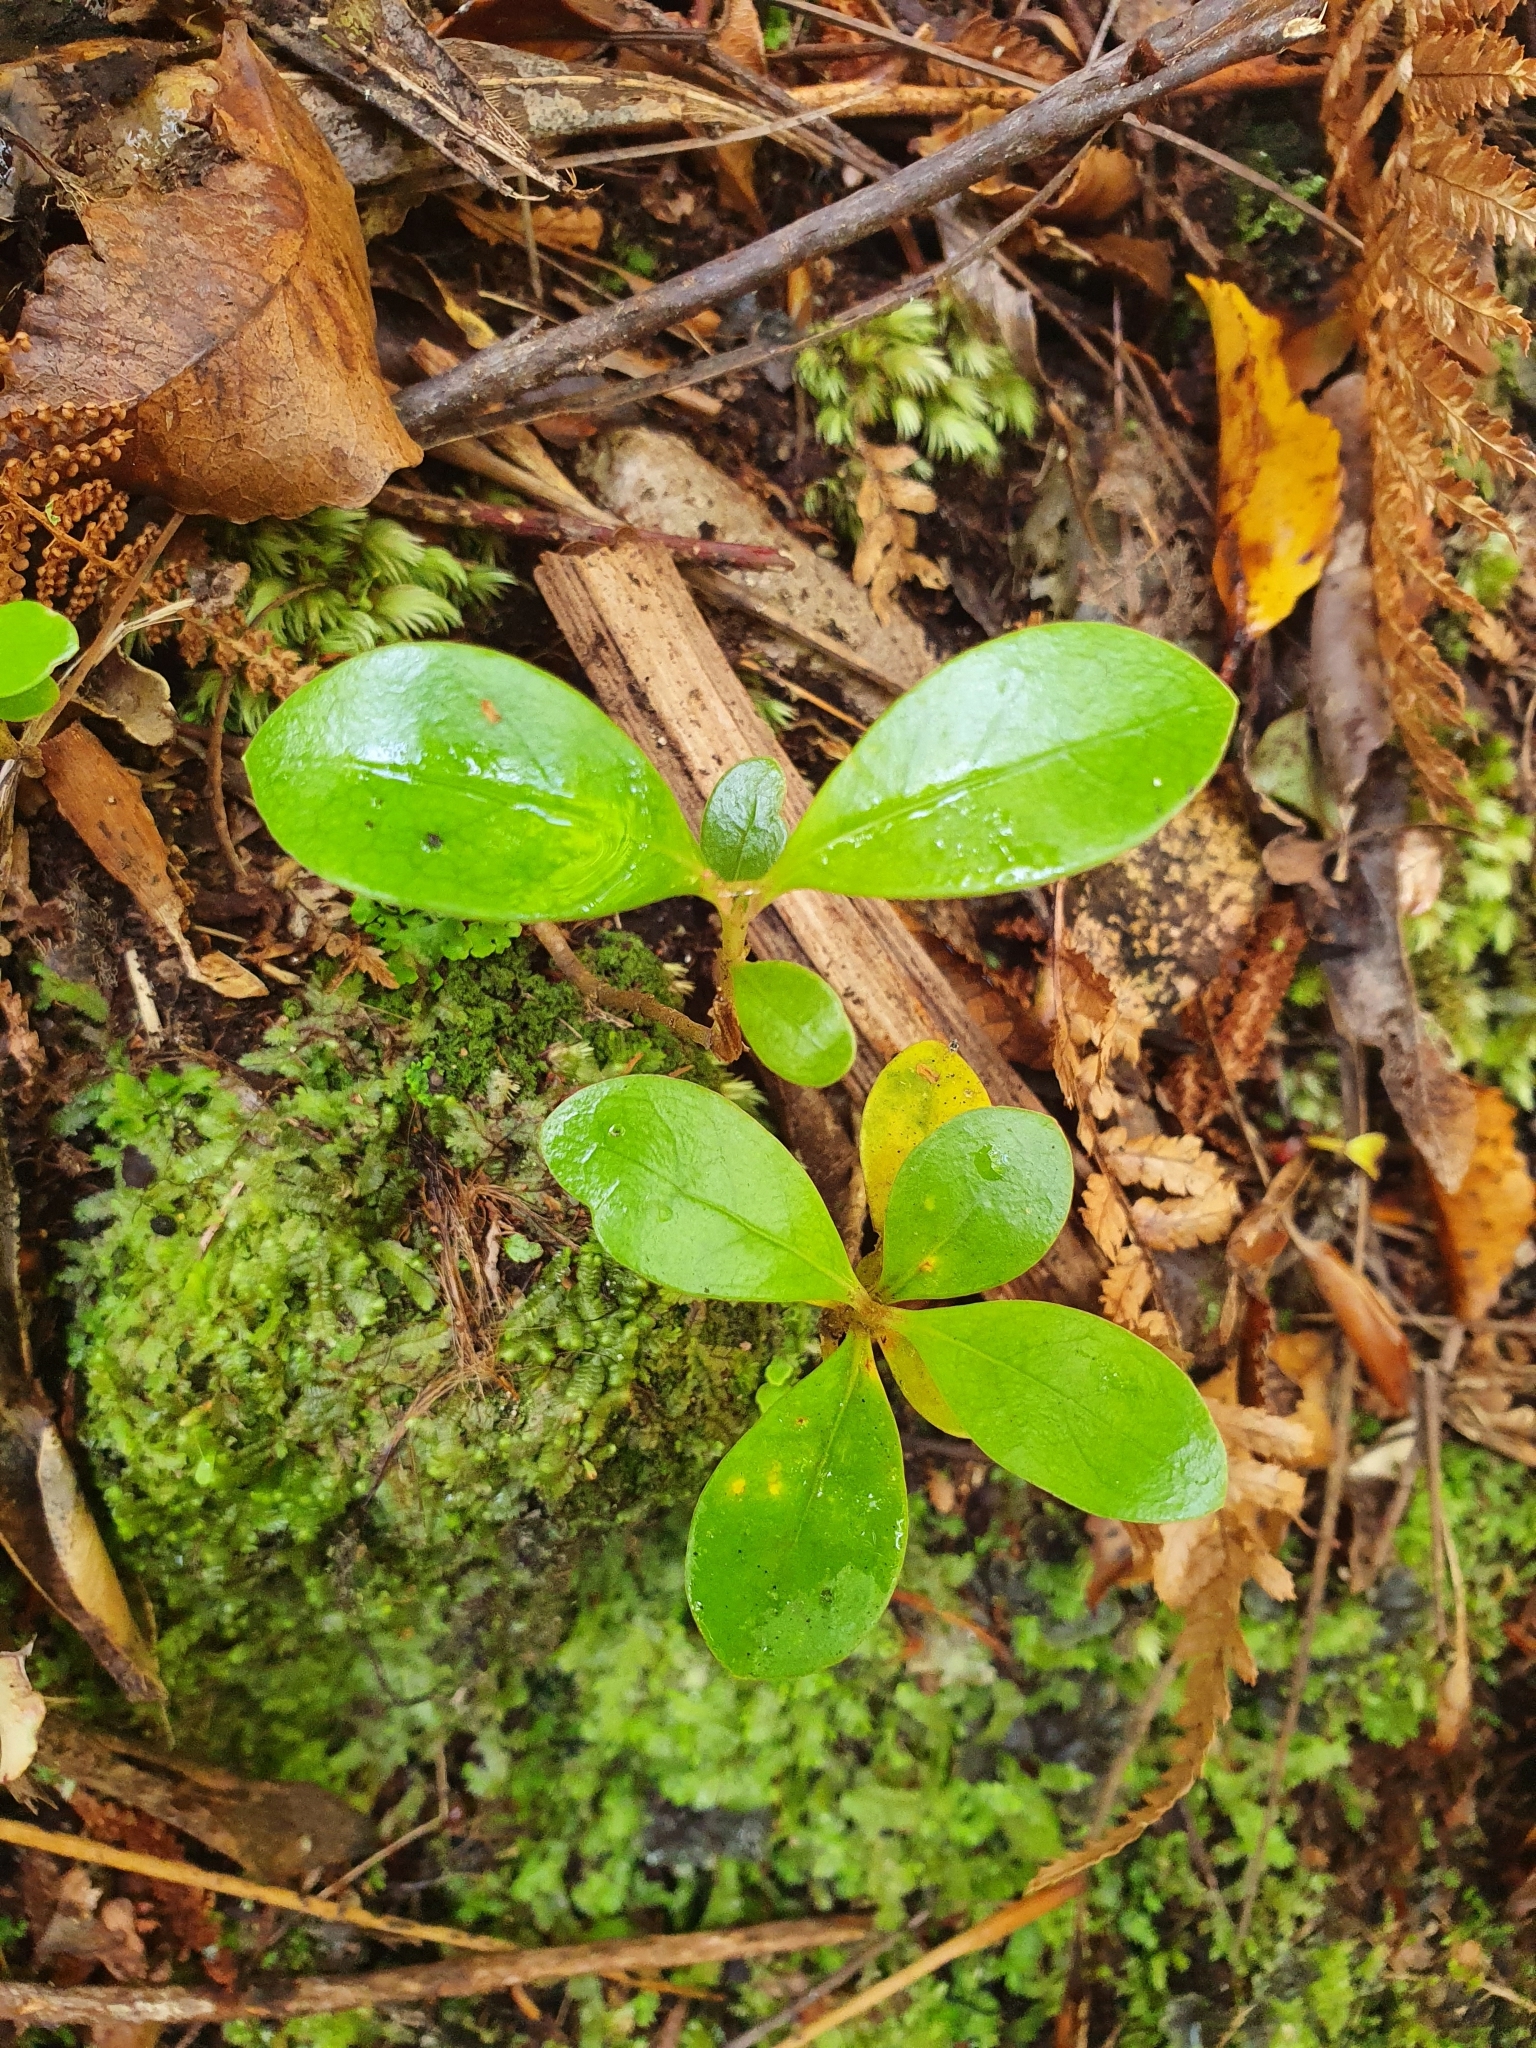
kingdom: Plantae
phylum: Tracheophyta
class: Magnoliopsida
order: Gentianales
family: Rubiaceae
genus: Coprosma
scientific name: Coprosma lucida
